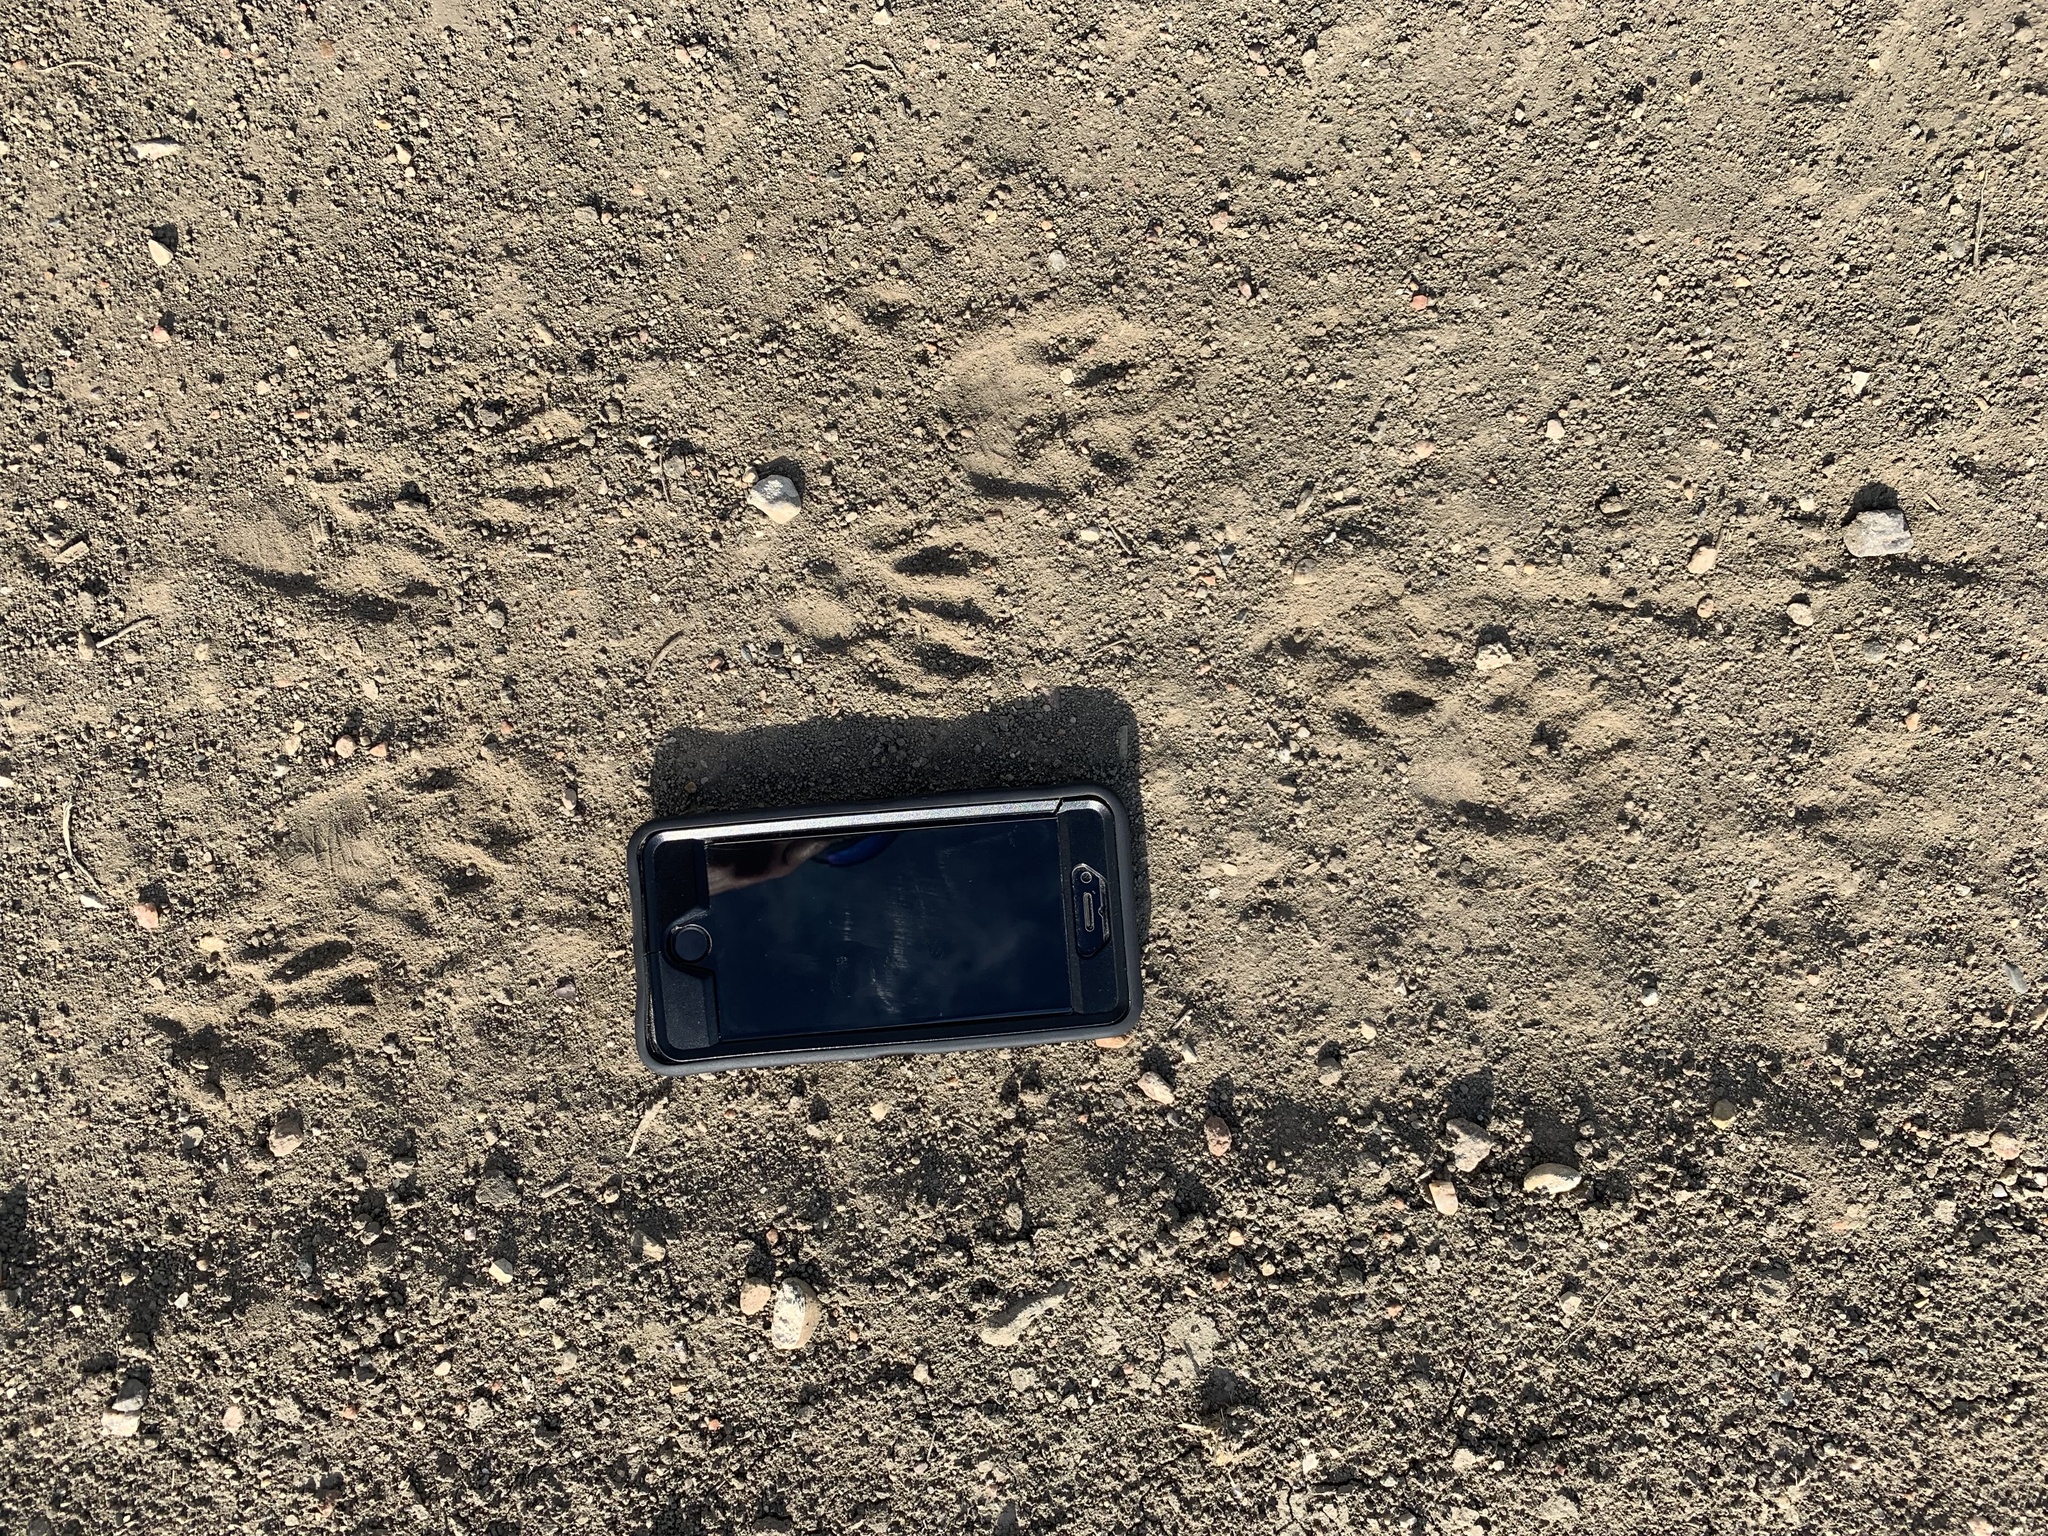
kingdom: Animalia
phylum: Chordata
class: Mammalia
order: Carnivora
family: Procyonidae
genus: Procyon
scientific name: Procyon lotor
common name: Raccoon
